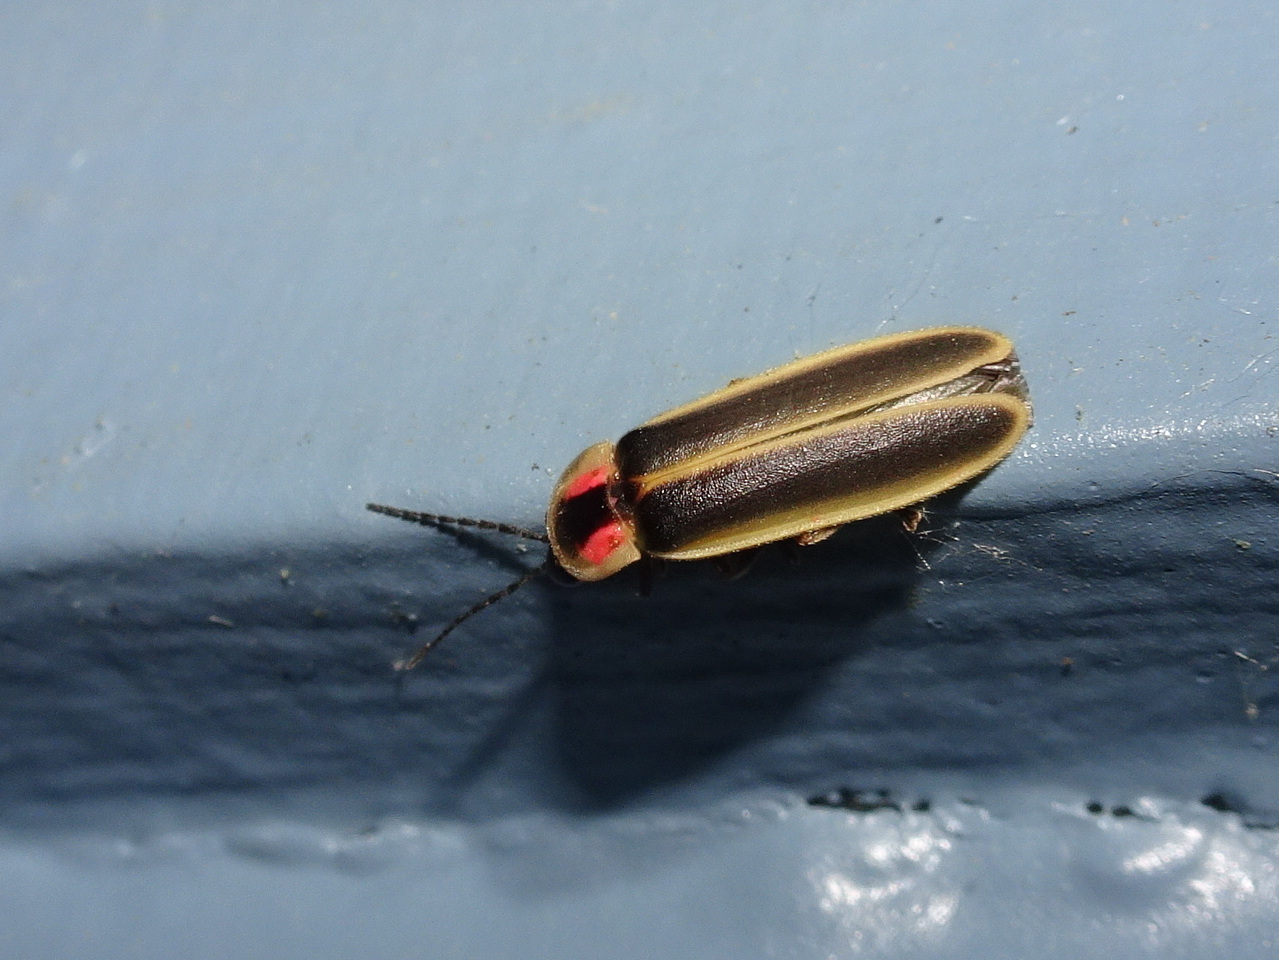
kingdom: Animalia
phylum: Arthropoda
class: Insecta
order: Coleoptera
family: Lampyridae
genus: Photinus
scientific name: Photinus pyralis
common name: Big dipper firefly
